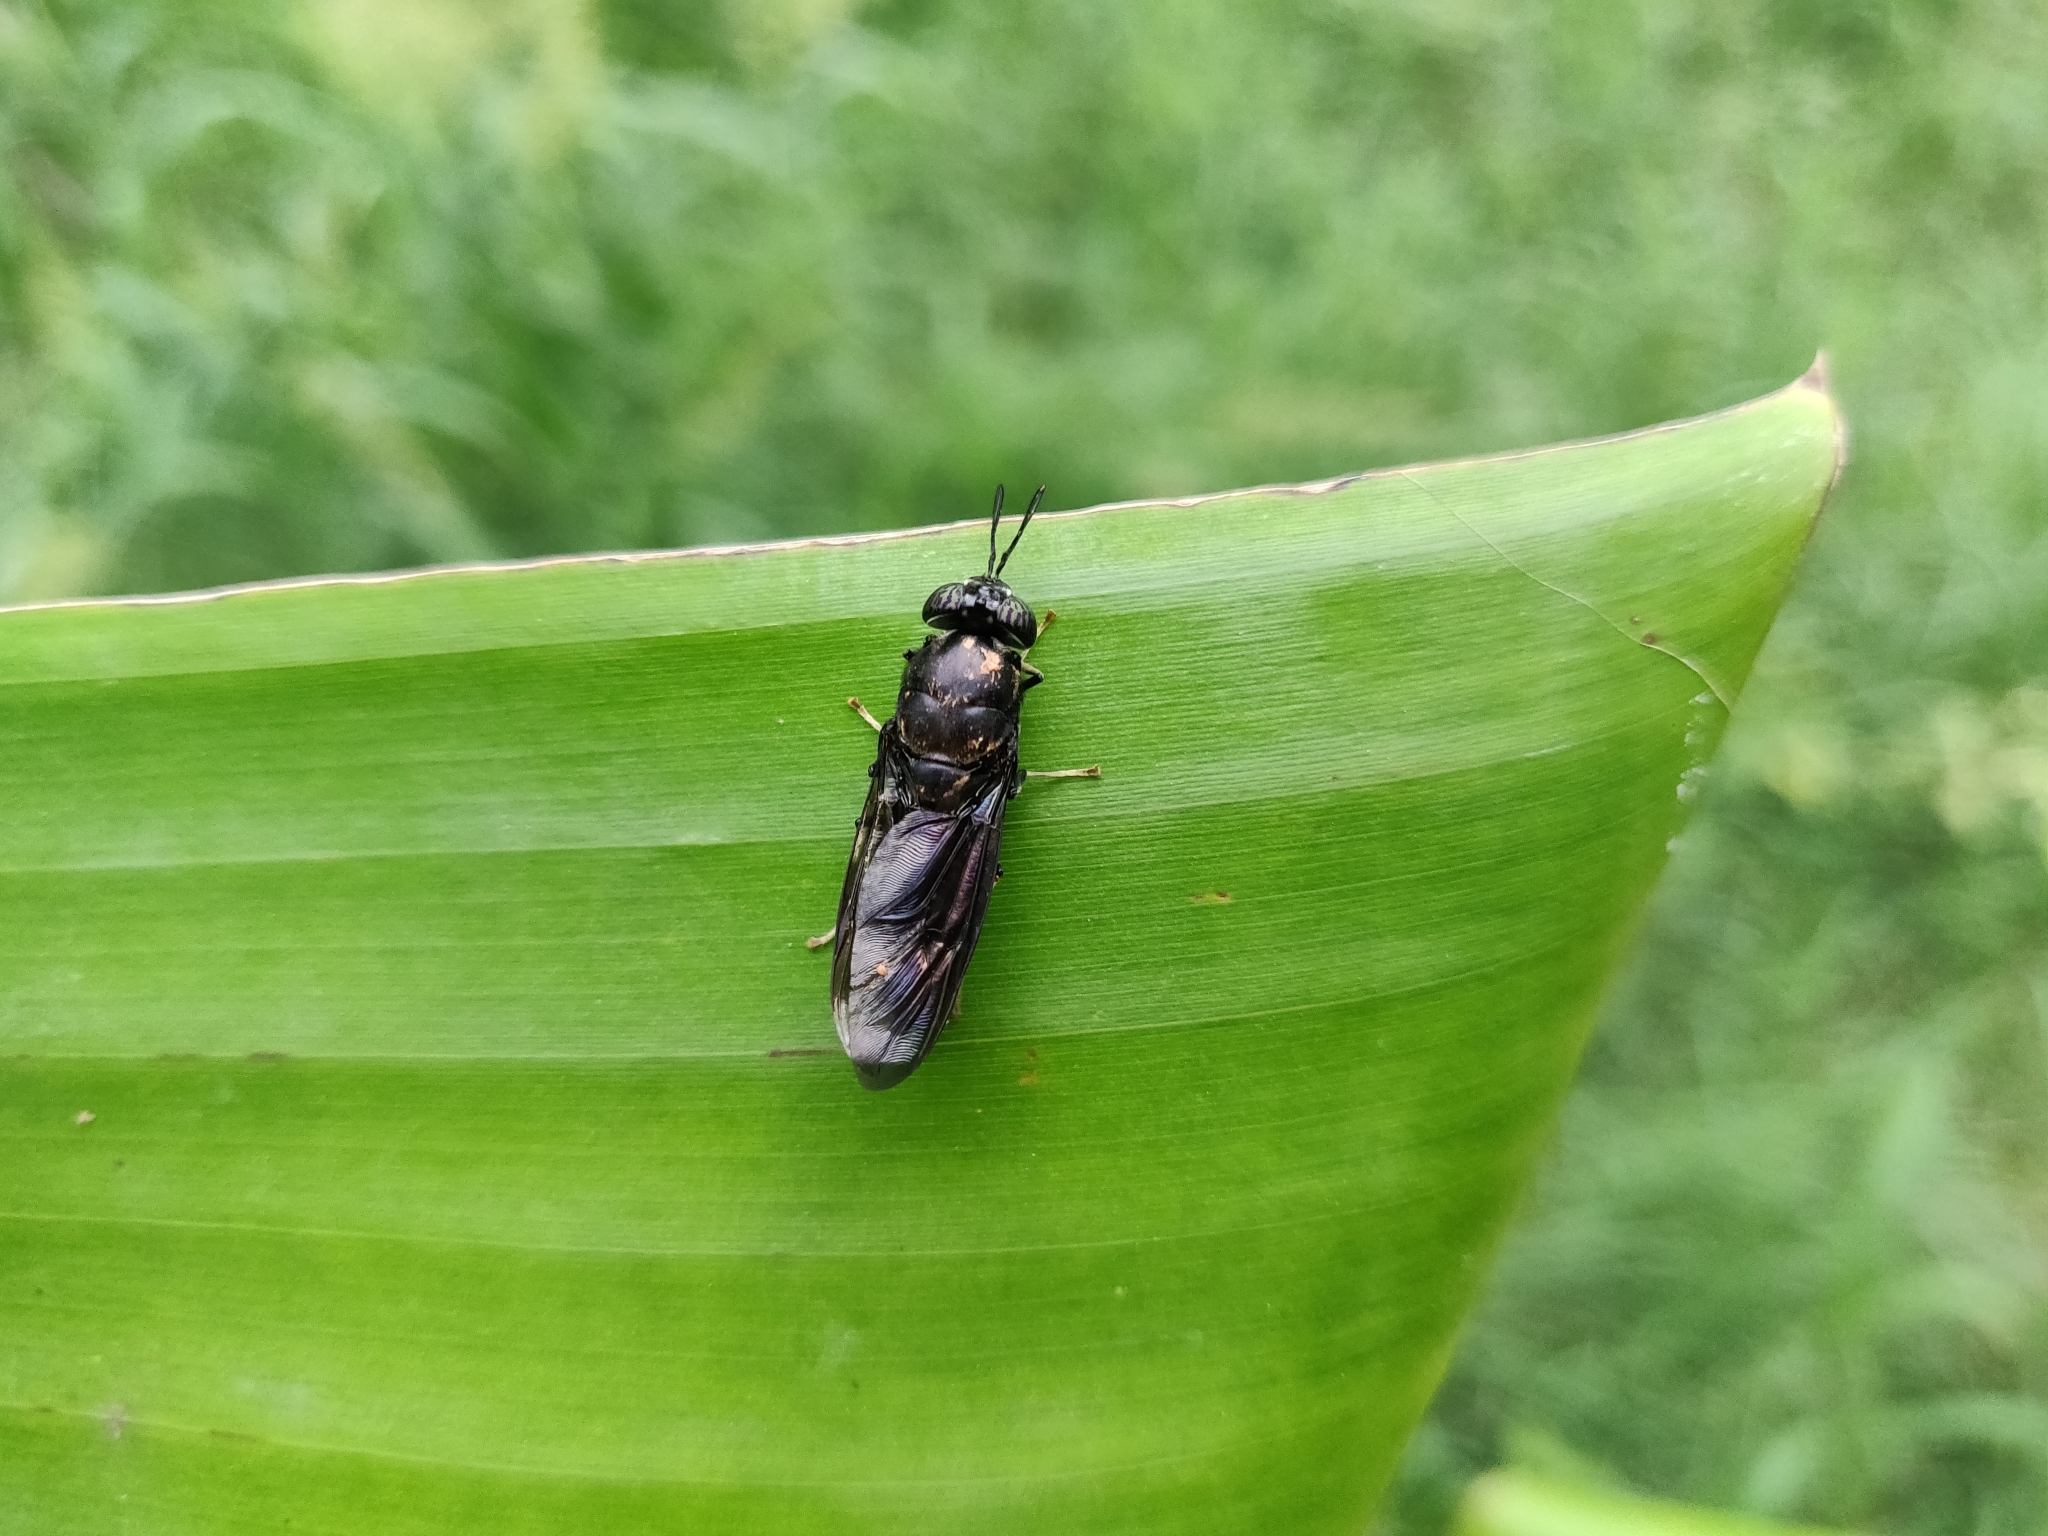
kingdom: Animalia
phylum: Arthropoda
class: Insecta
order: Diptera
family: Stratiomyidae
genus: Hermetia
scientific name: Hermetia illucens
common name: Black soldier fly
